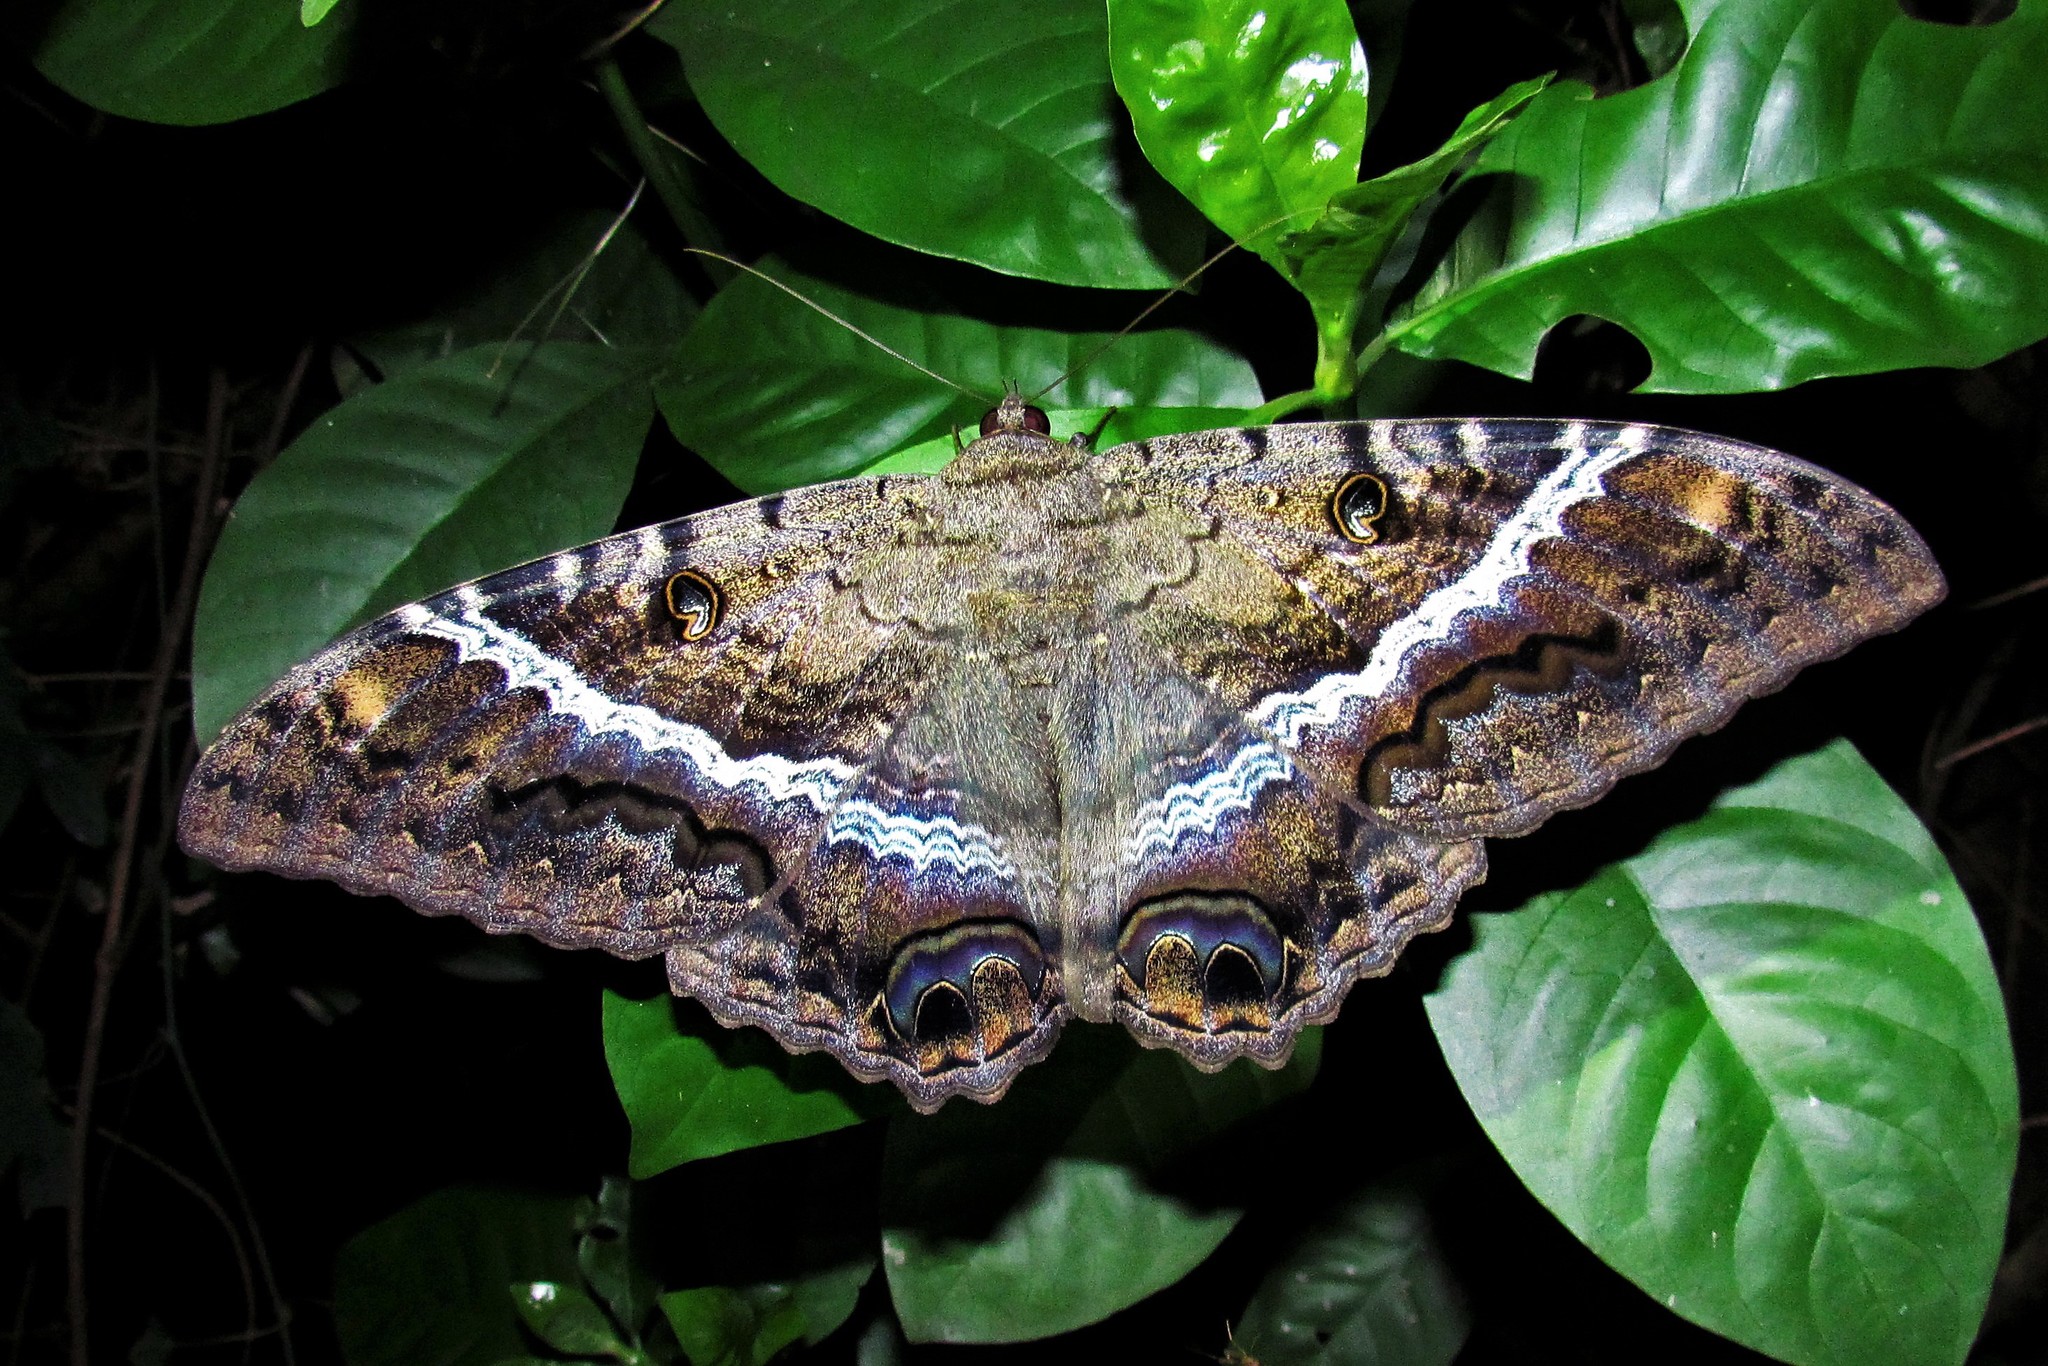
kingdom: Animalia
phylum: Arthropoda
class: Insecta
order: Lepidoptera
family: Erebidae
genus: Ascalapha
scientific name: Ascalapha odorata
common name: Black witch
